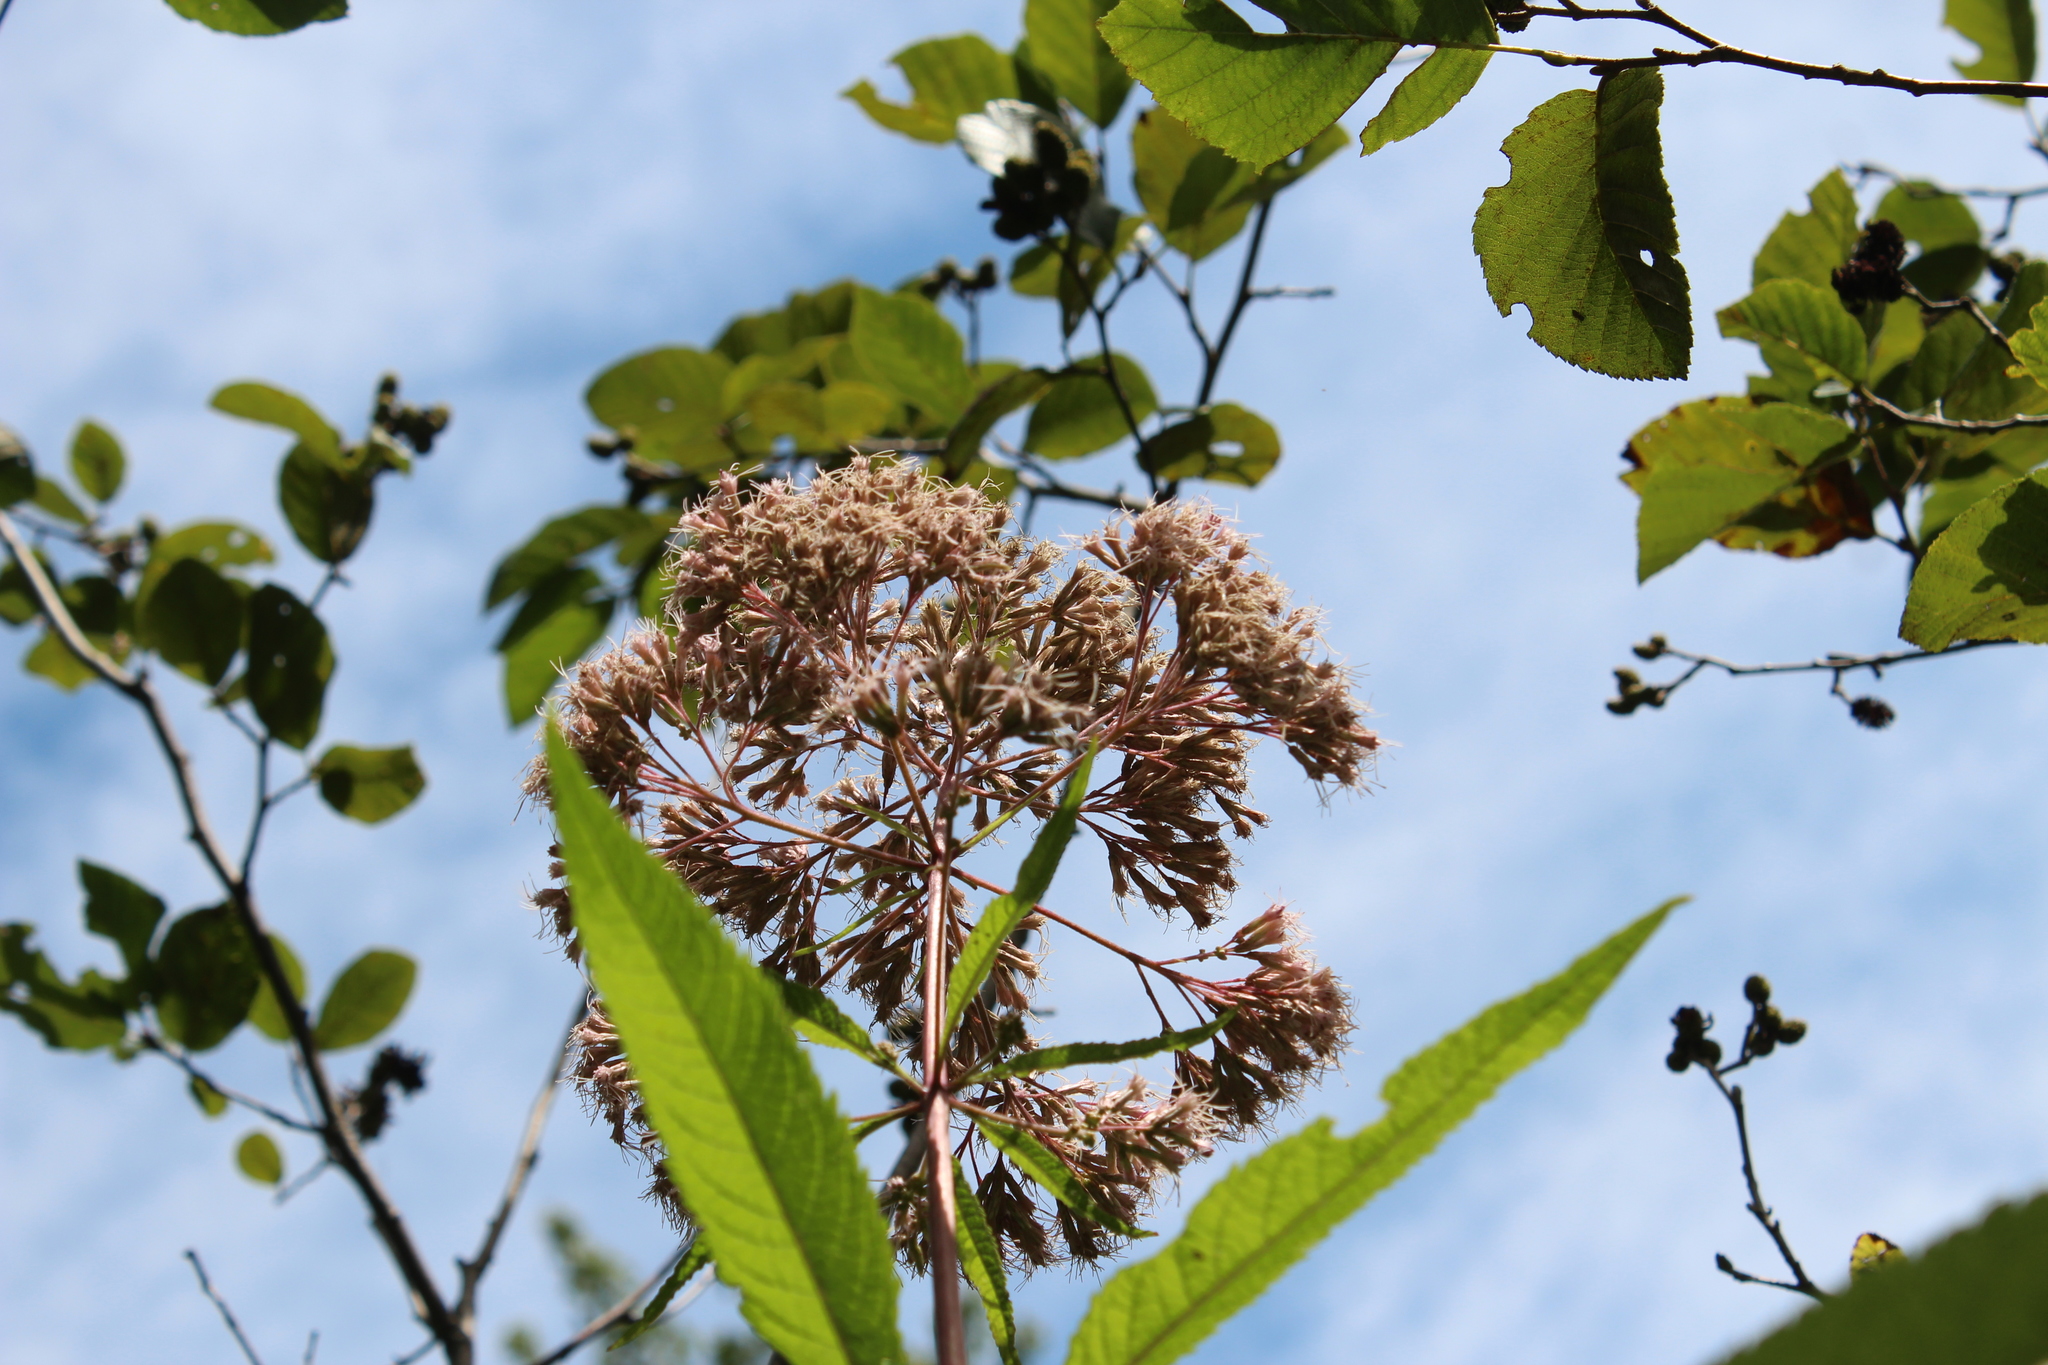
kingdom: Plantae
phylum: Tracheophyta
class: Magnoliopsida
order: Asterales
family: Asteraceae
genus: Eutrochium
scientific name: Eutrochium fistulosum
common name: Trumpetweed
